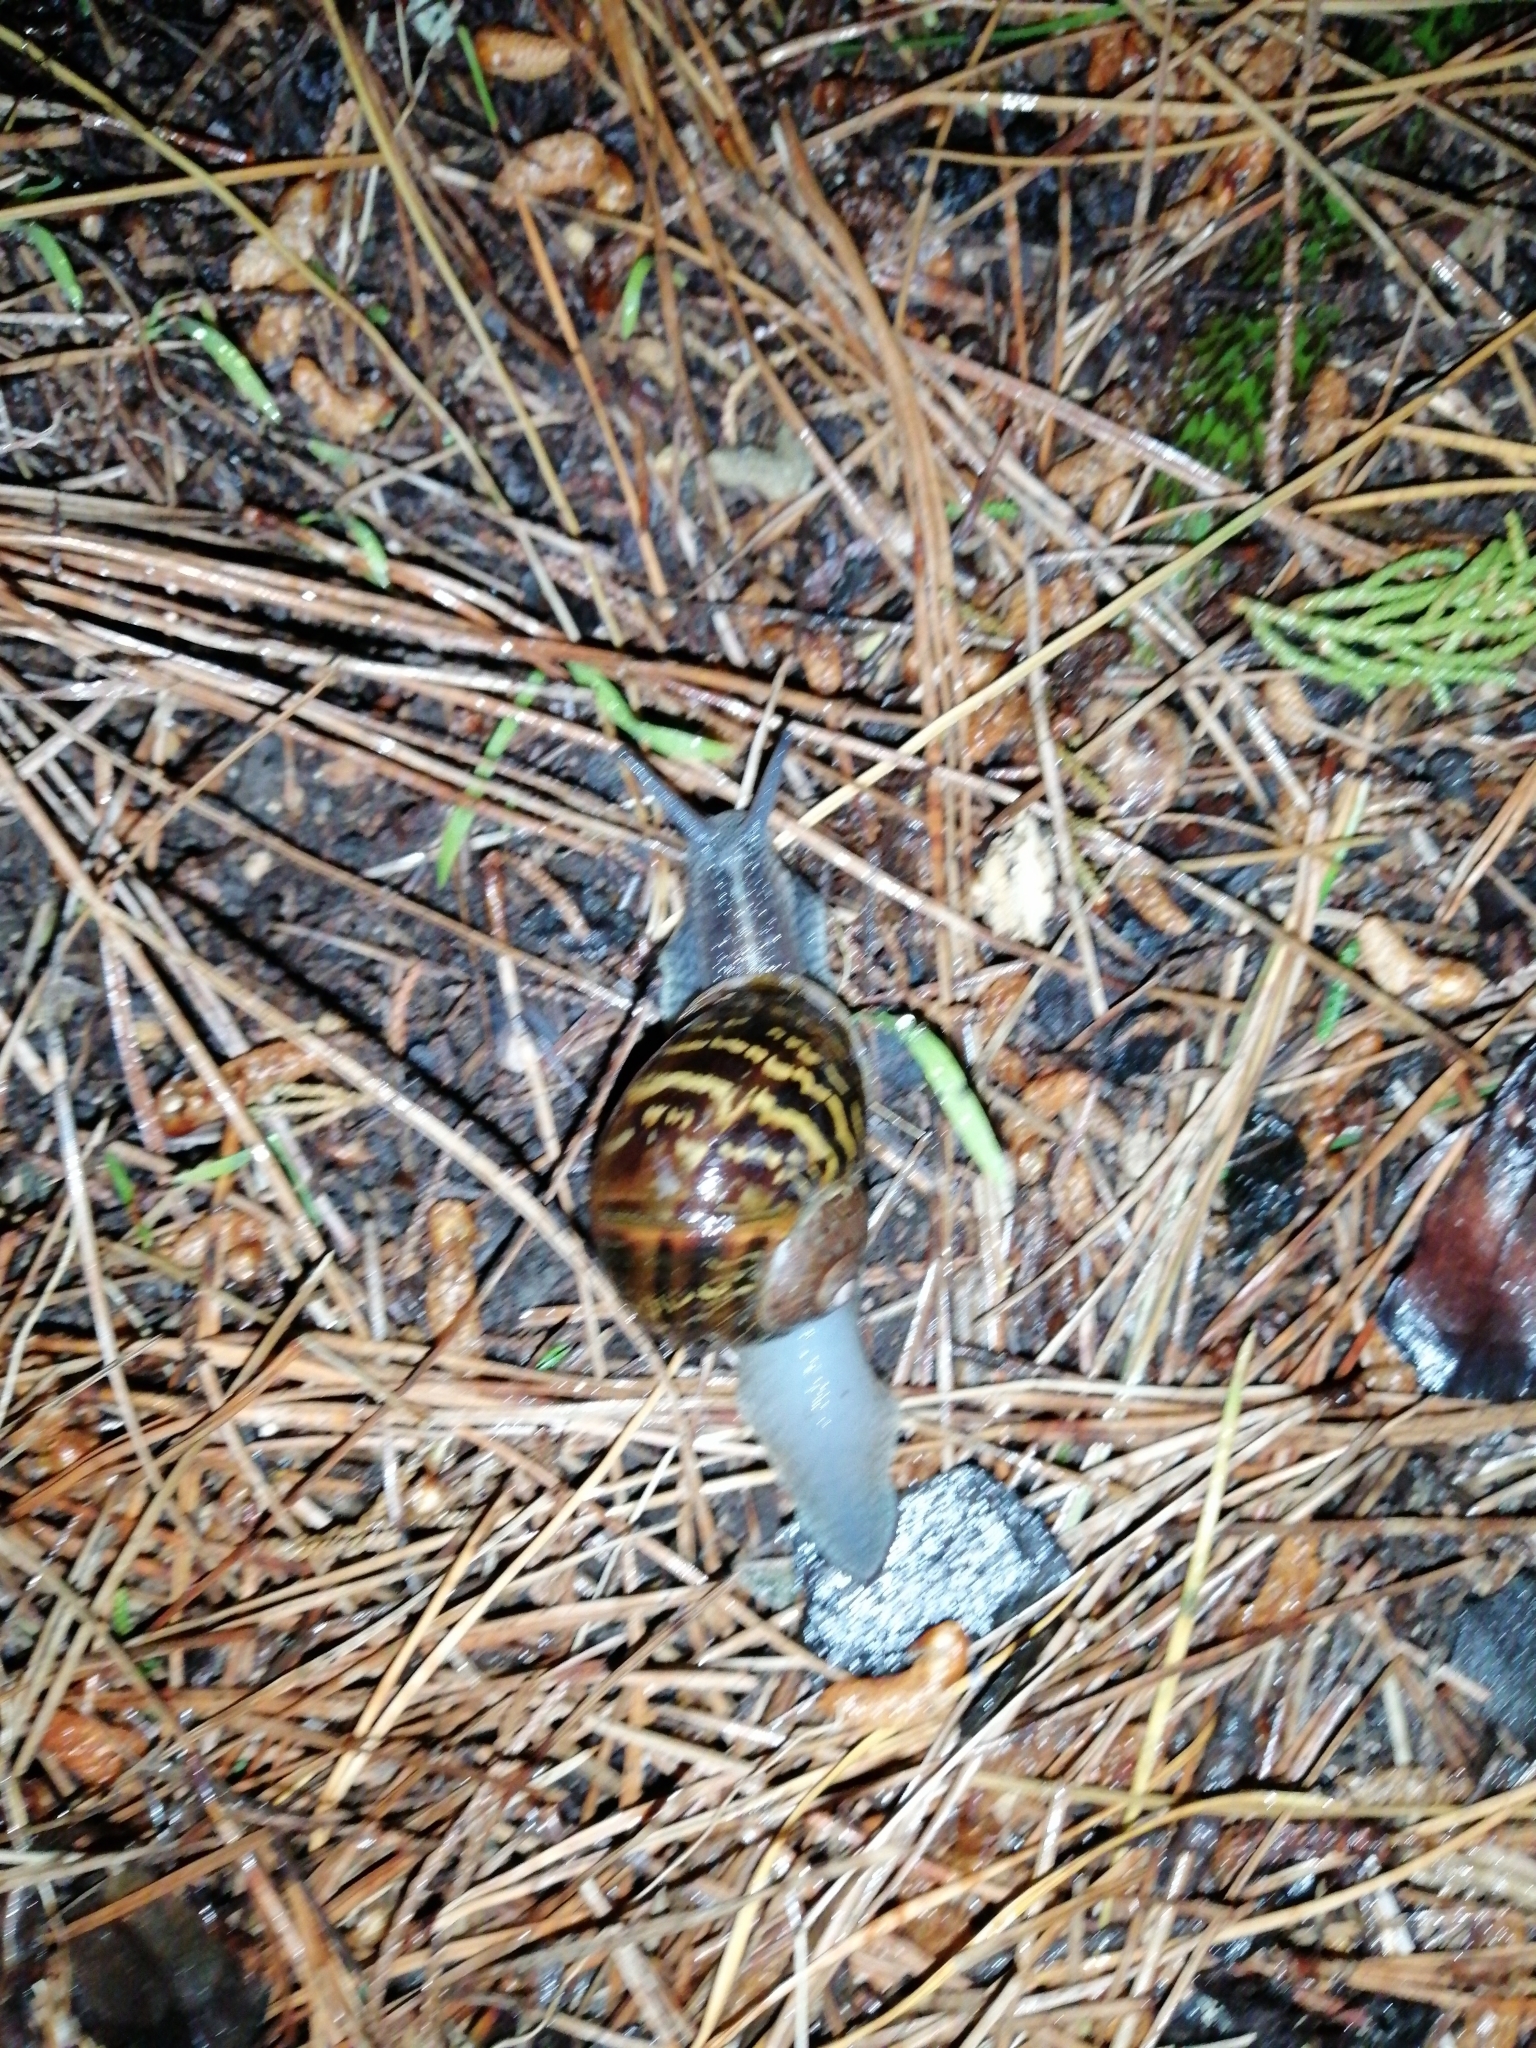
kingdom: Animalia
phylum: Mollusca
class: Gastropoda
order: Stylommatophora
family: Helicidae
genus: Cornu
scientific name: Cornu aspersum
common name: Brown garden snail
